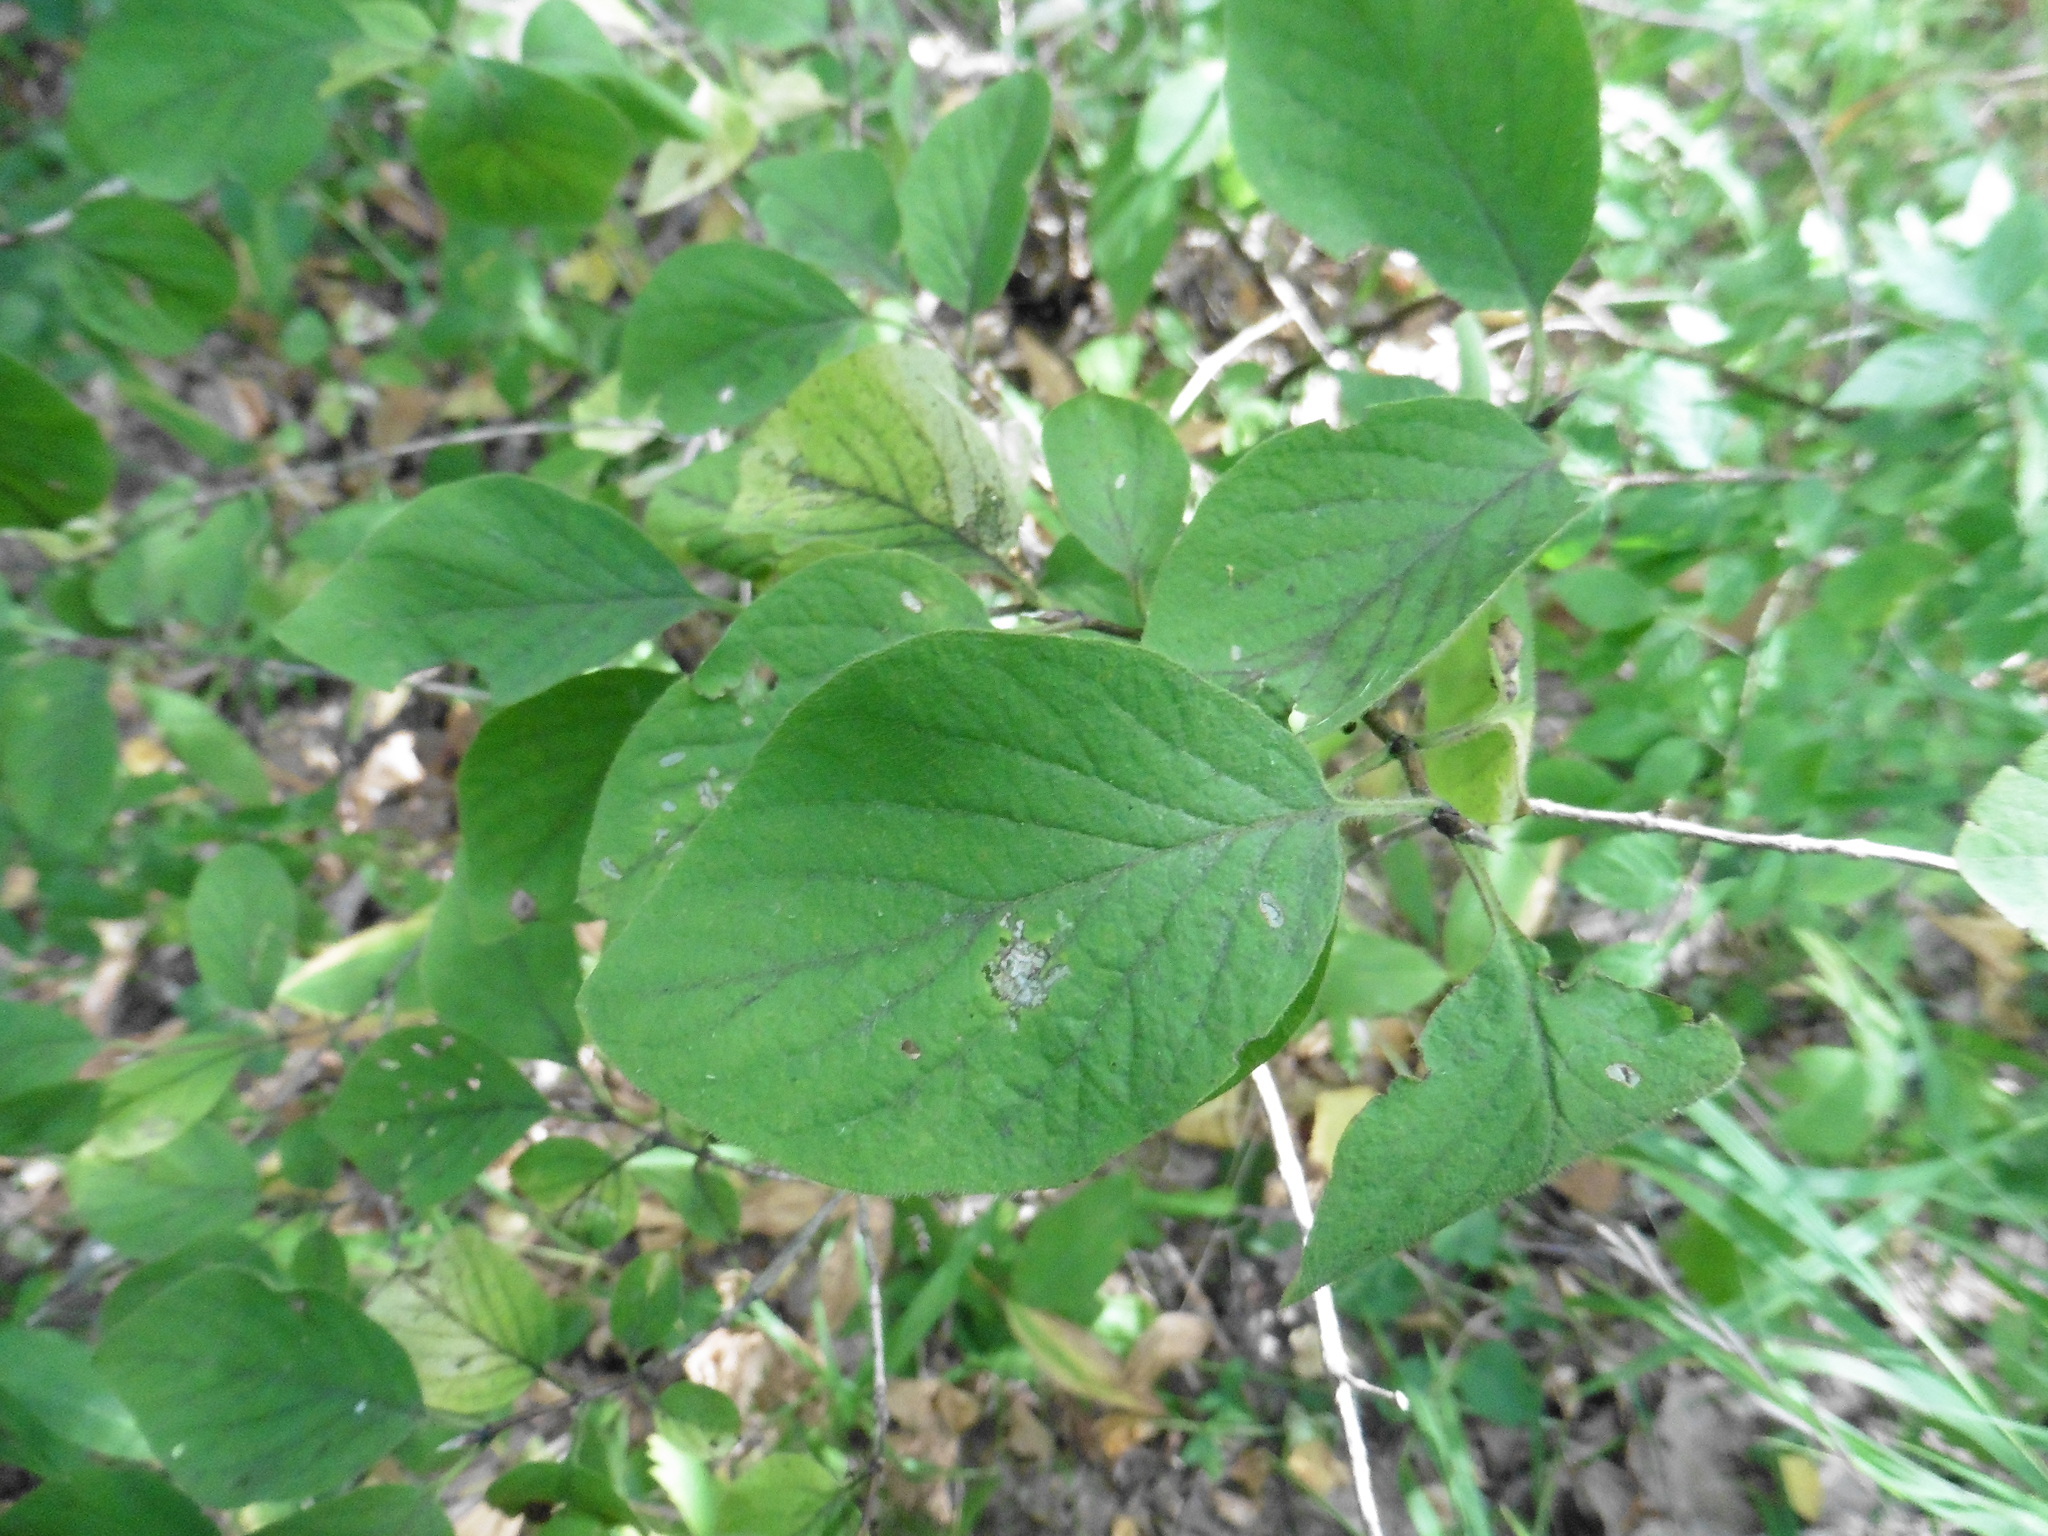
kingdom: Plantae
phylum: Tracheophyta
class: Magnoliopsida
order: Dipsacales
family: Caprifoliaceae
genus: Lonicera
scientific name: Lonicera xylosteum
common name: Fly honeysuckle
